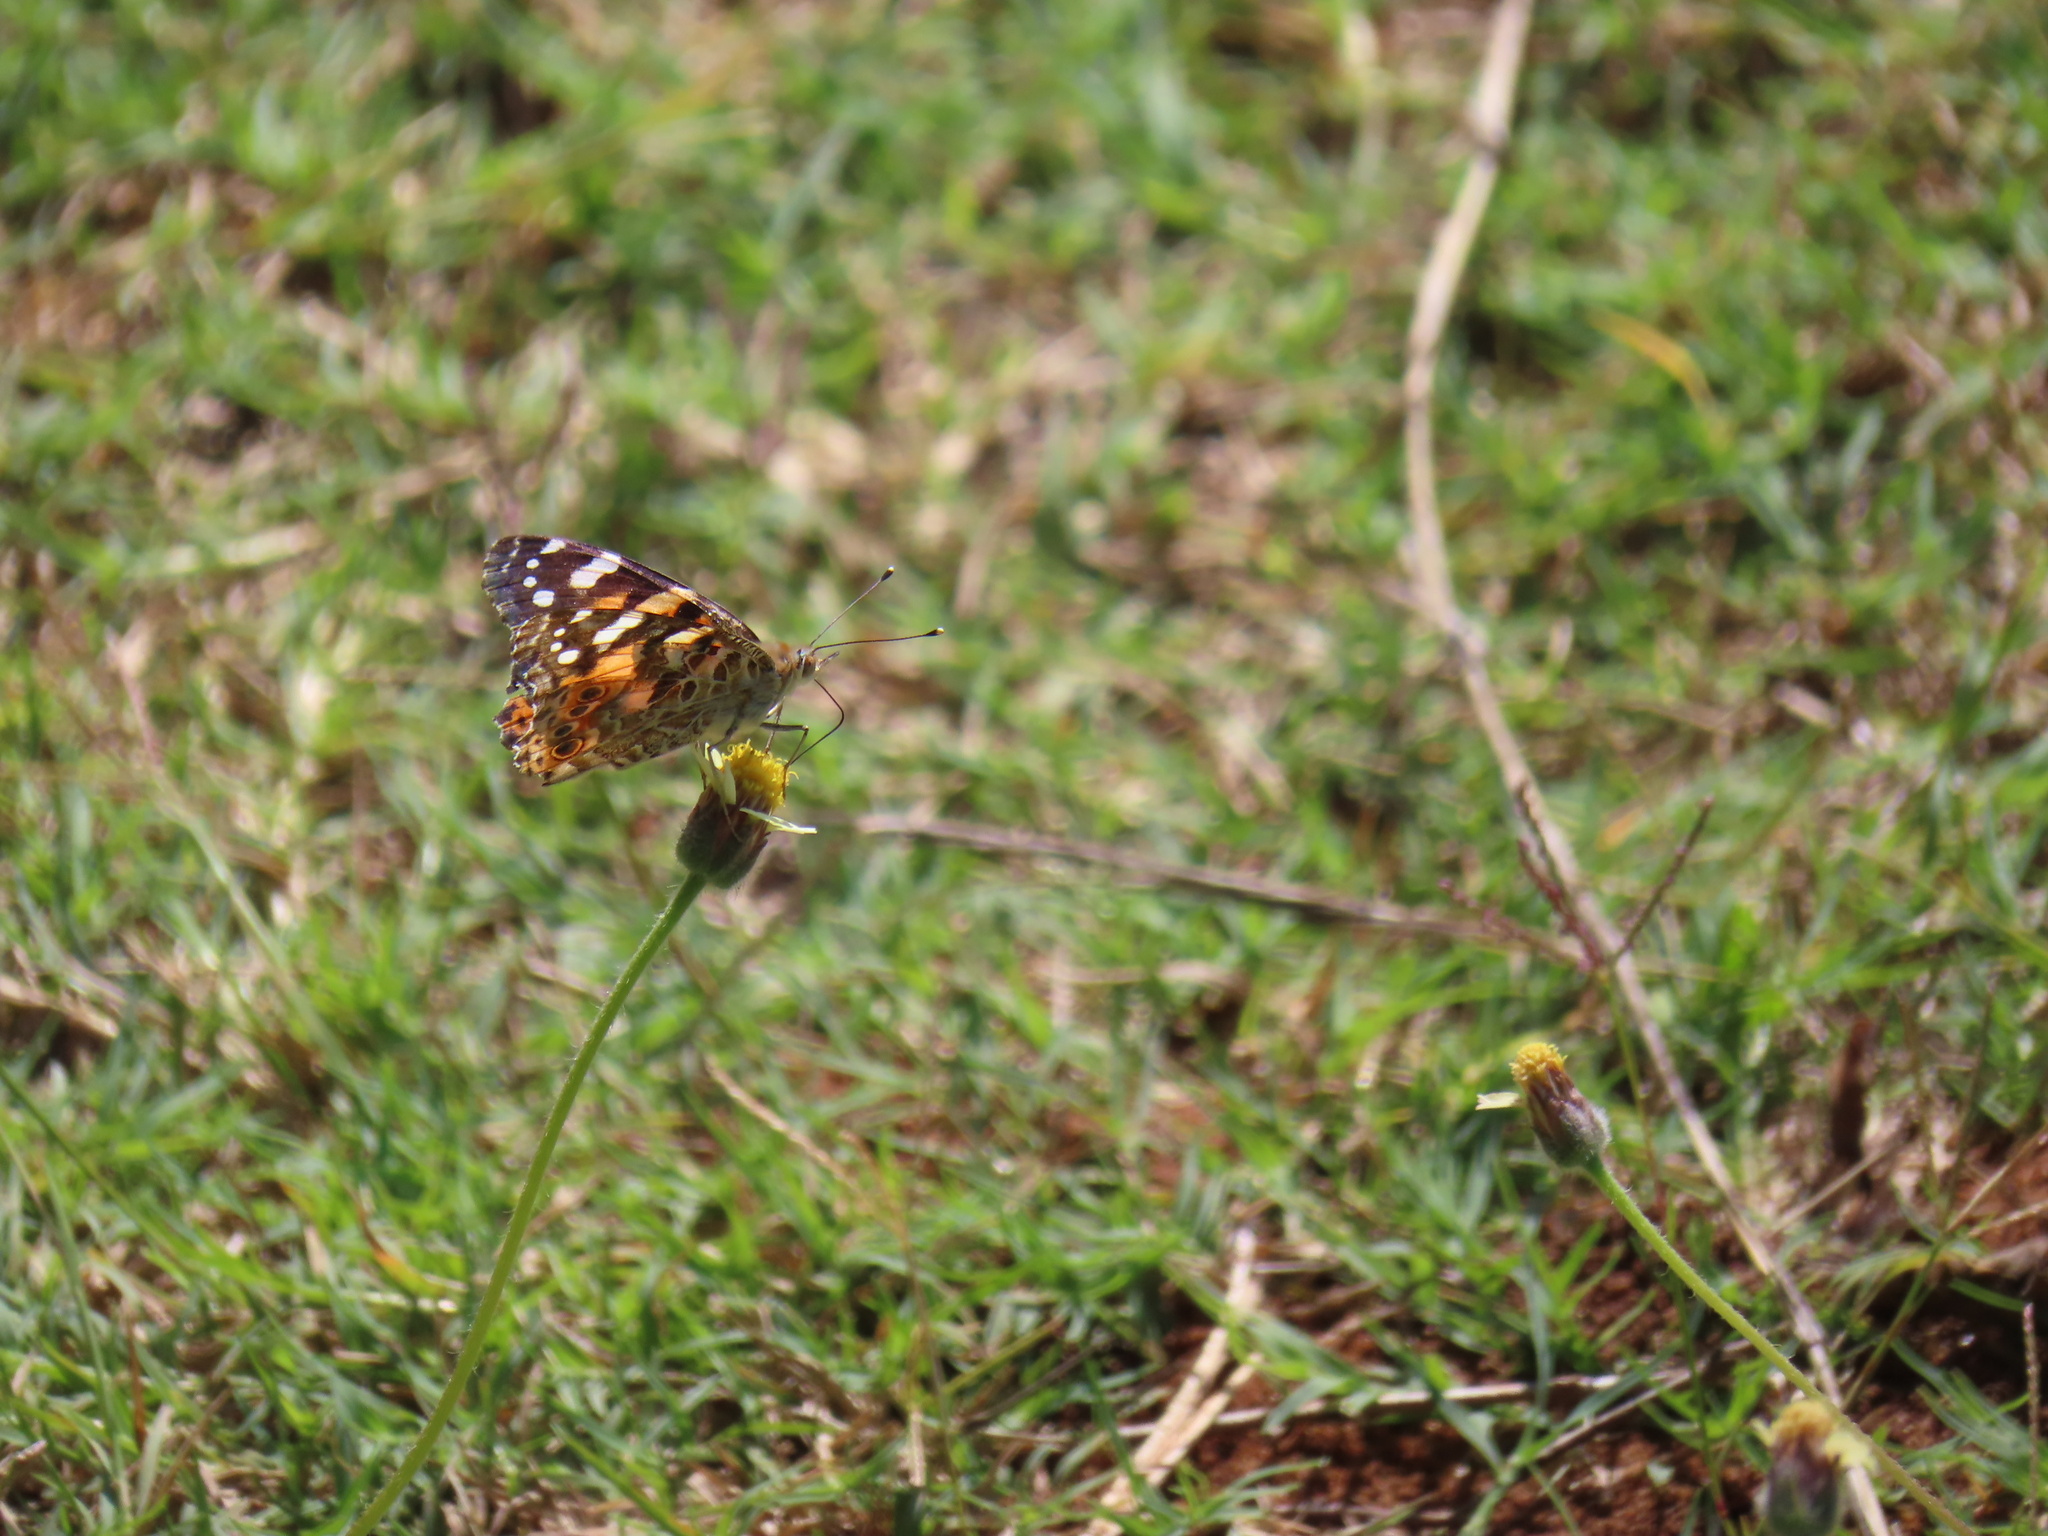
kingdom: Animalia
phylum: Arthropoda
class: Insecta
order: Lepidoptera
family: Nymphalidae
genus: Vanessa
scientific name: Vanessa cardui
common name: Painted lady
